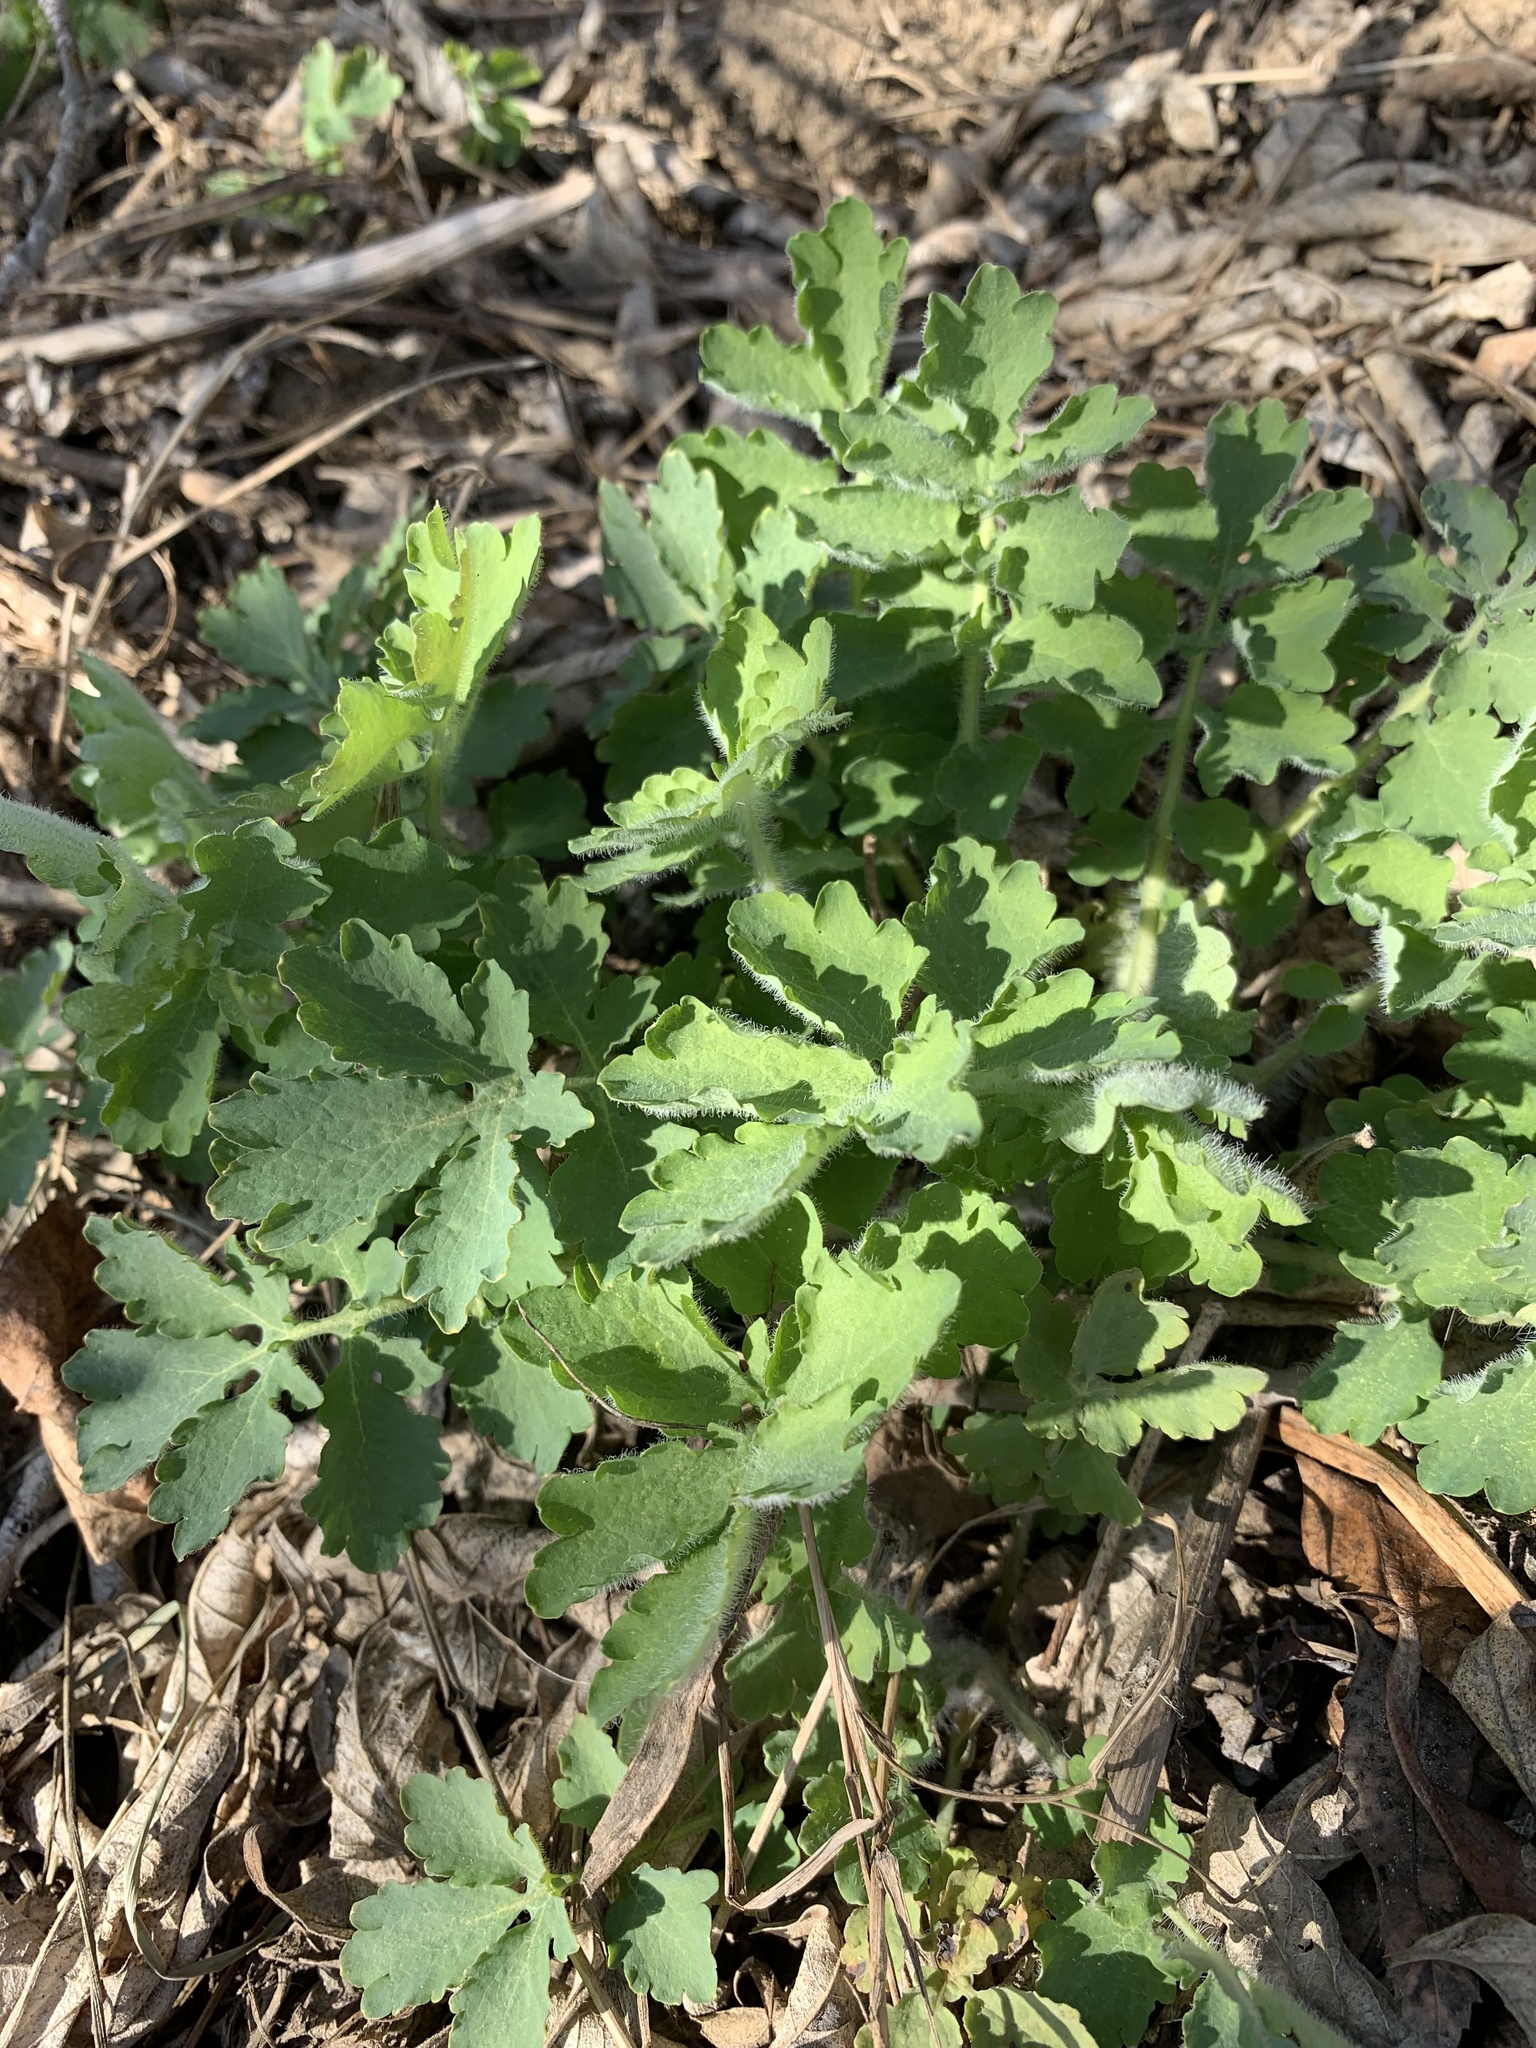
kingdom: Plantae
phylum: Tracheophyta
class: Magnoliopsida
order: Ranunculales
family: Papaveraceae
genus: Chelidonium
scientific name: Chelidonium majus
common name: Greater celandine
